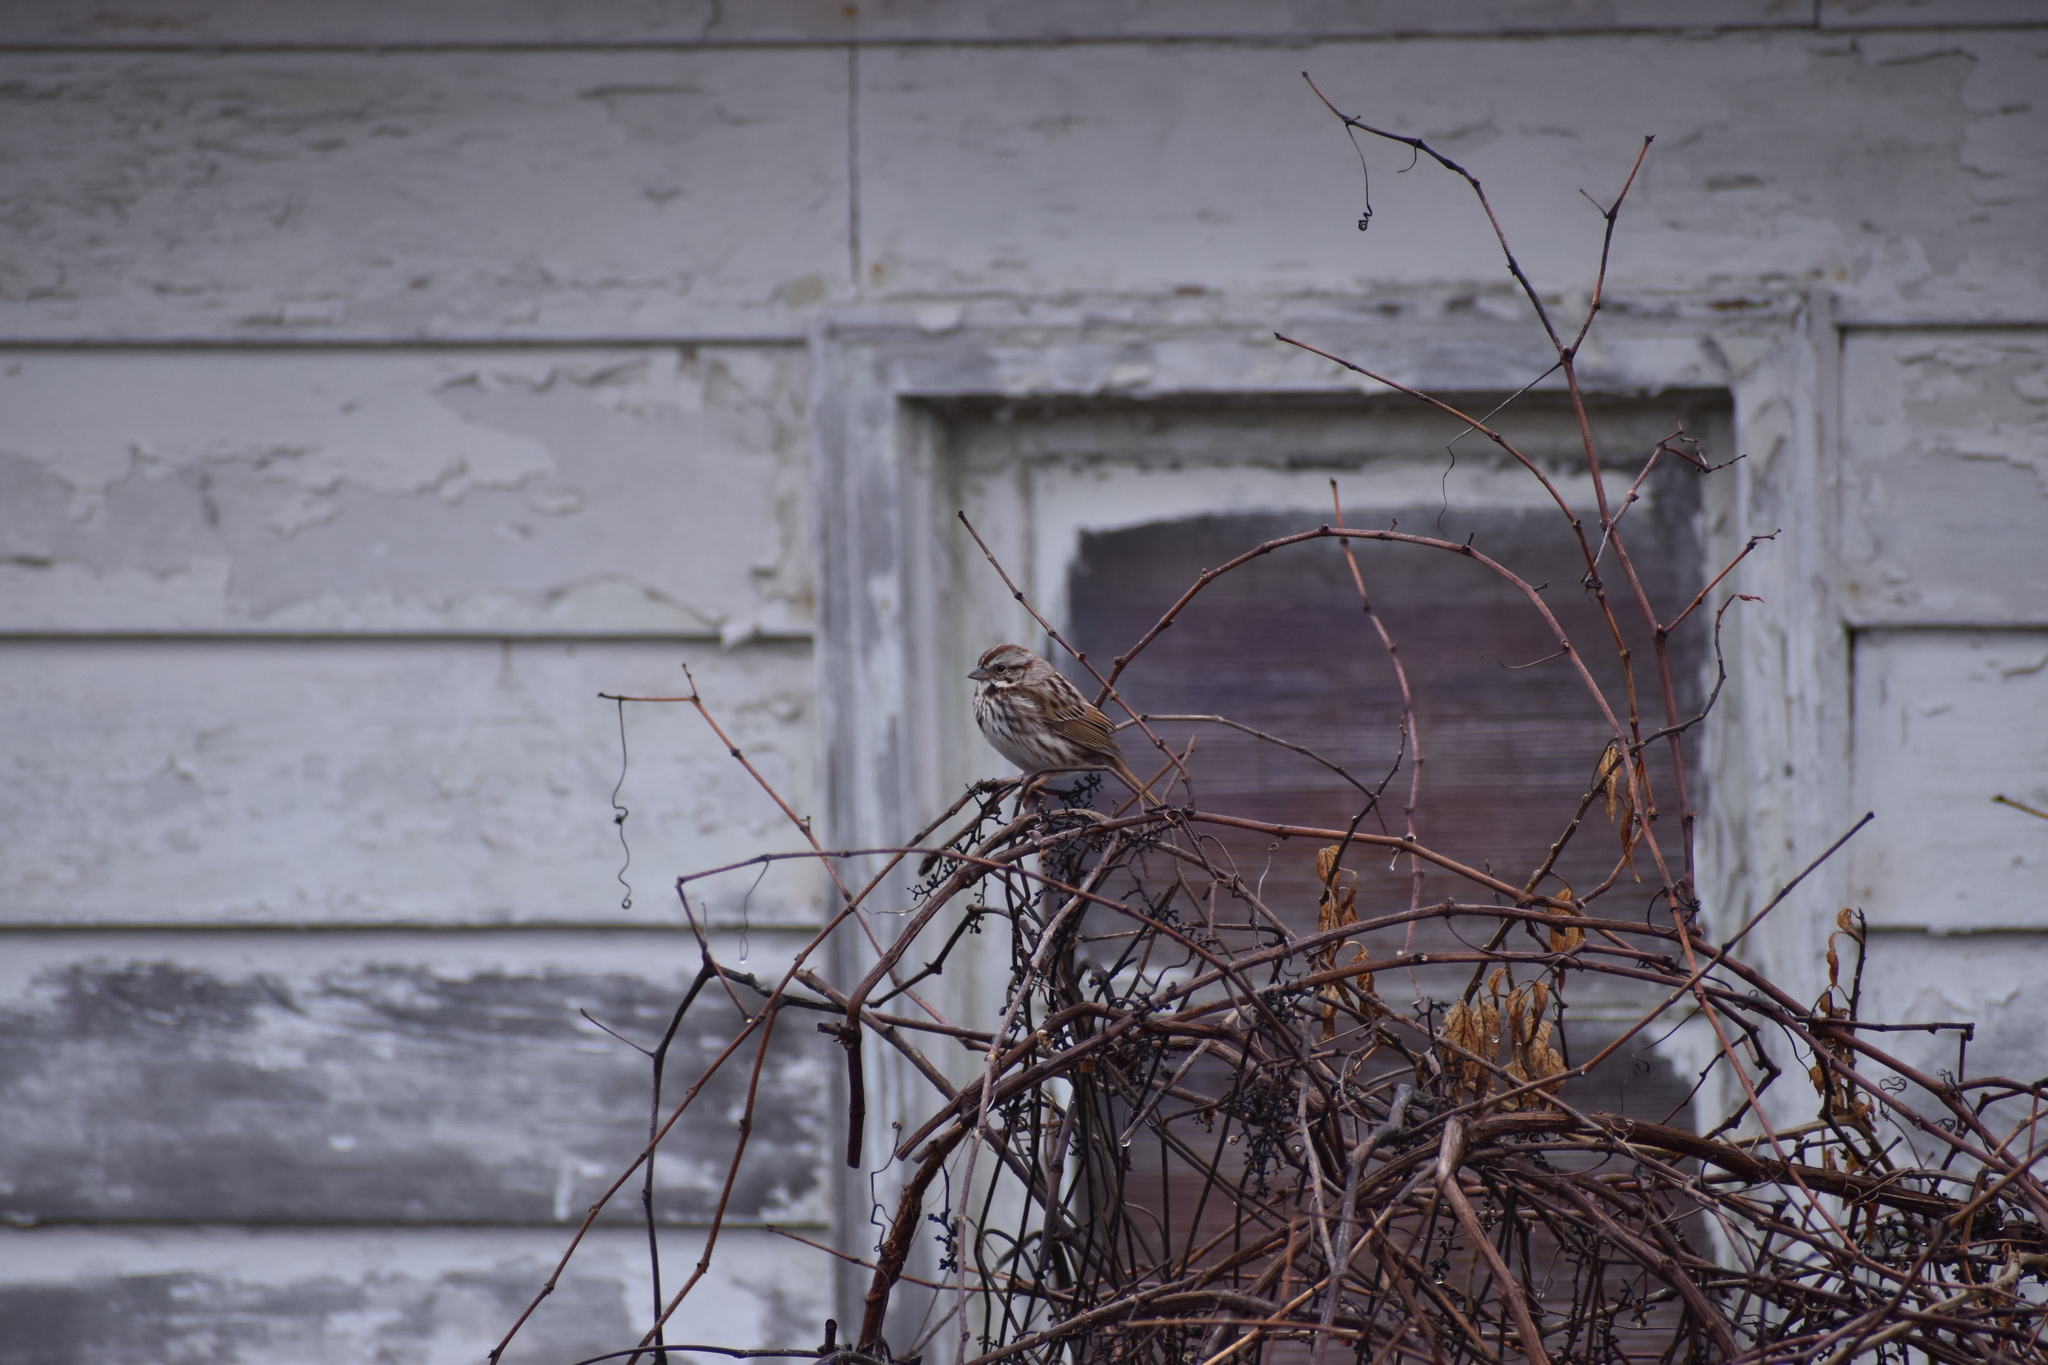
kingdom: Animalia
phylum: Chordata
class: Aves
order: Passeriformes
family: Passerellidae
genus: Melospiza
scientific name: Melospiza melodia
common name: Song sparrow
